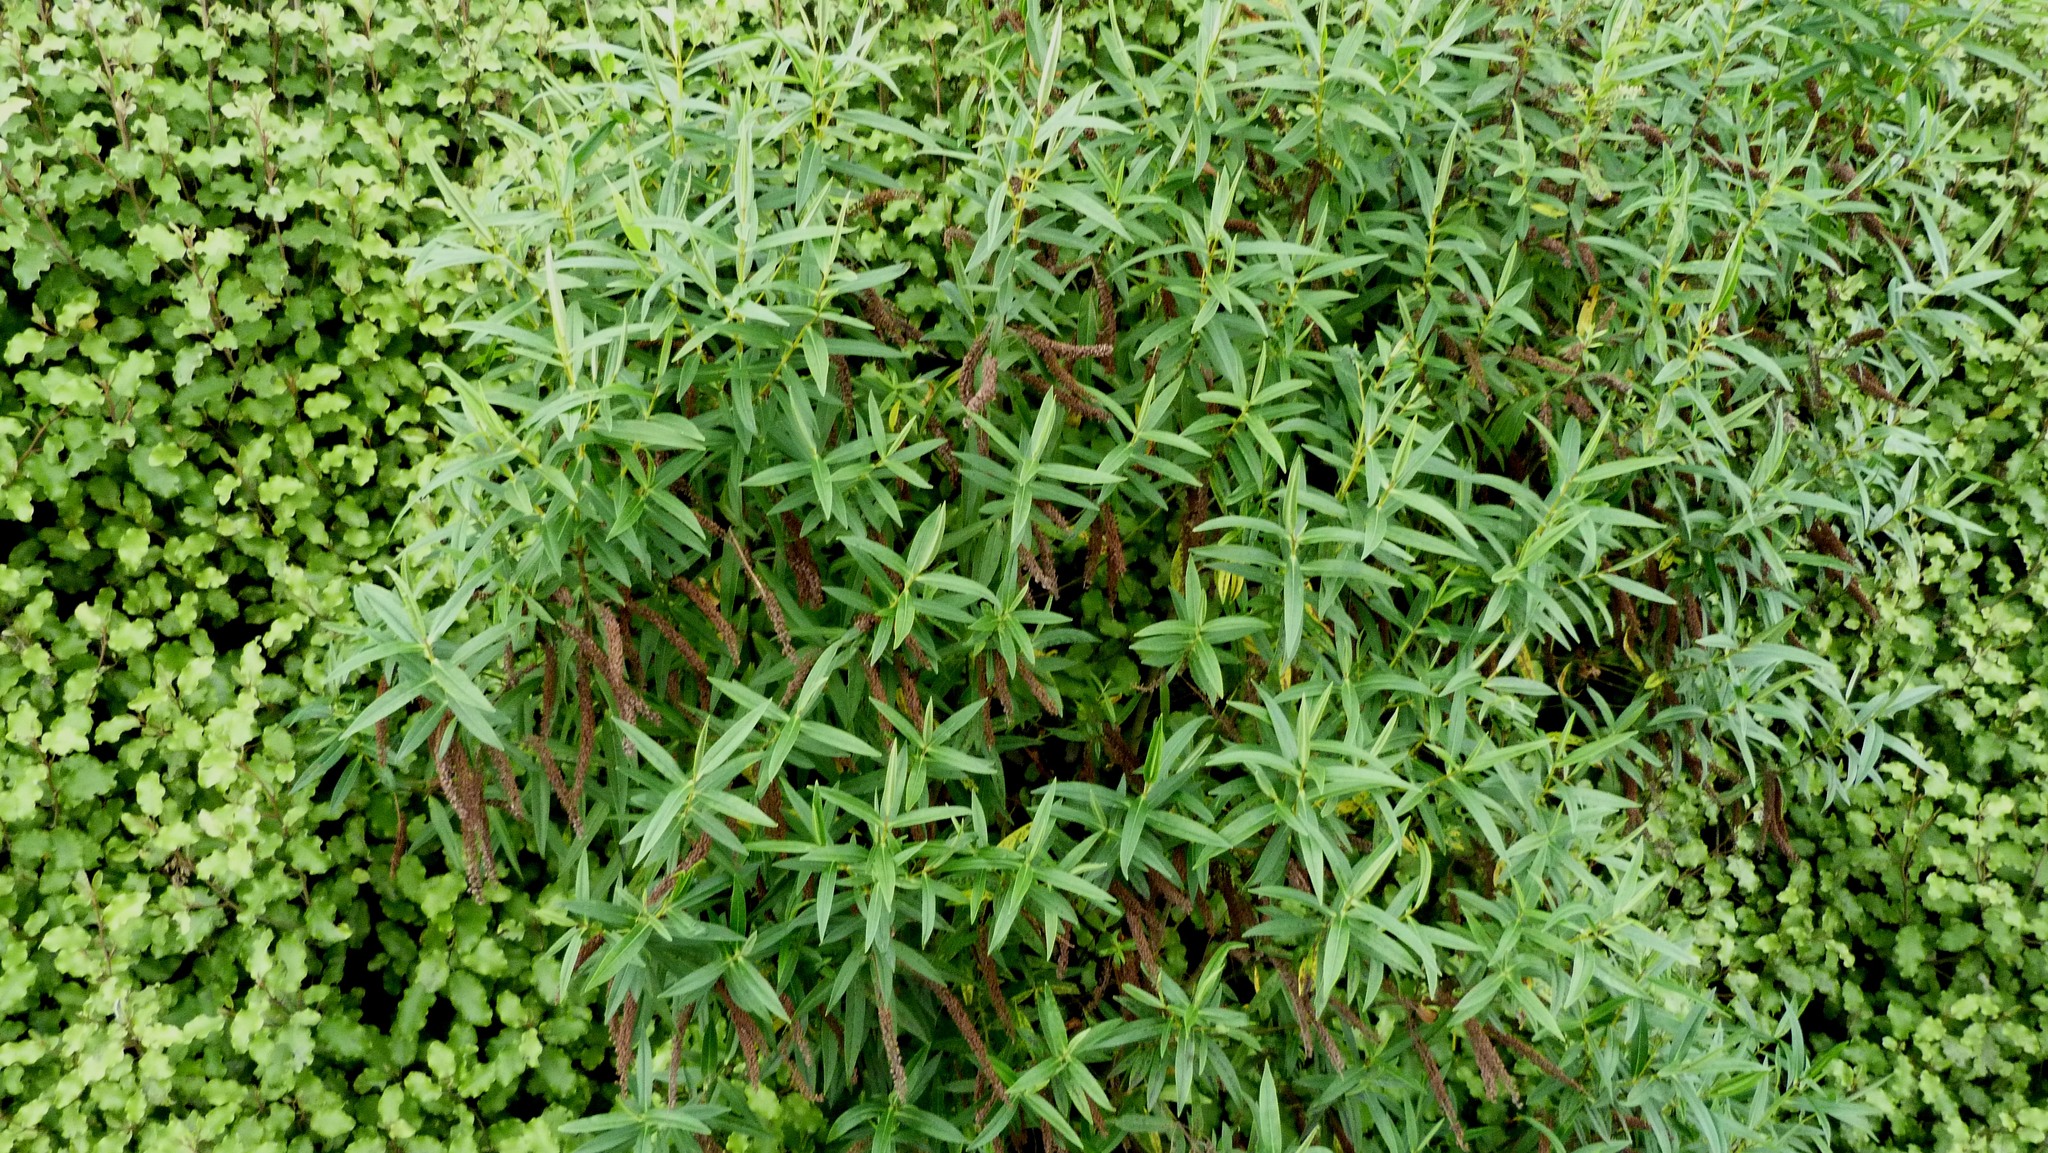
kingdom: Plantae
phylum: Tracheophyta
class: Magnoliopsida
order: Lamiales
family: Plantaginaceae
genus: Veronica
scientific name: Veronica salicifolia
